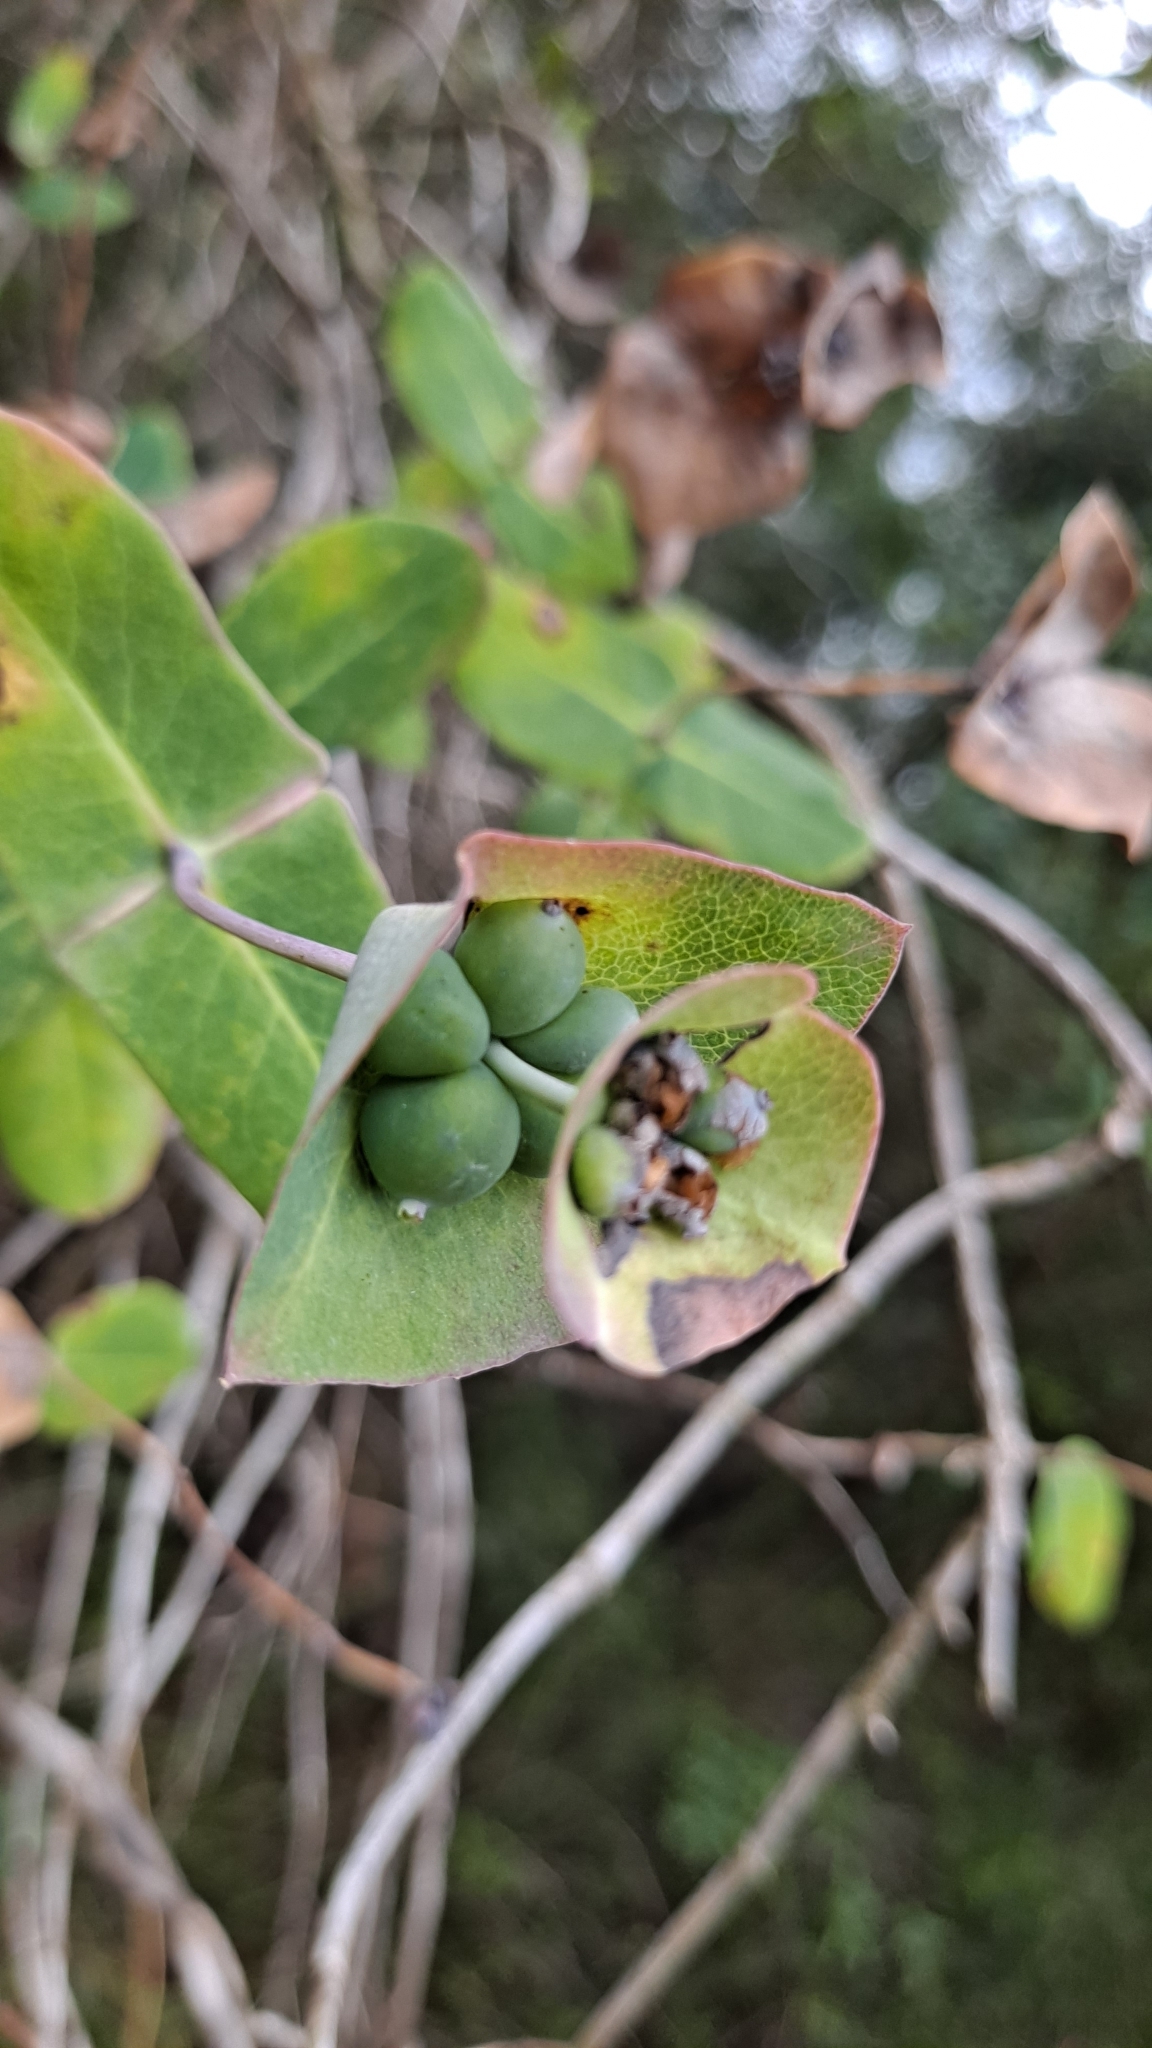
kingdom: Plantae
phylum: Tracheophyta
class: Magnoliopsida
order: Dipsacales
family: Caprifoliaceae
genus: Lonicera
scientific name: Lonicera implexa
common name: Minorca honeysuckle
